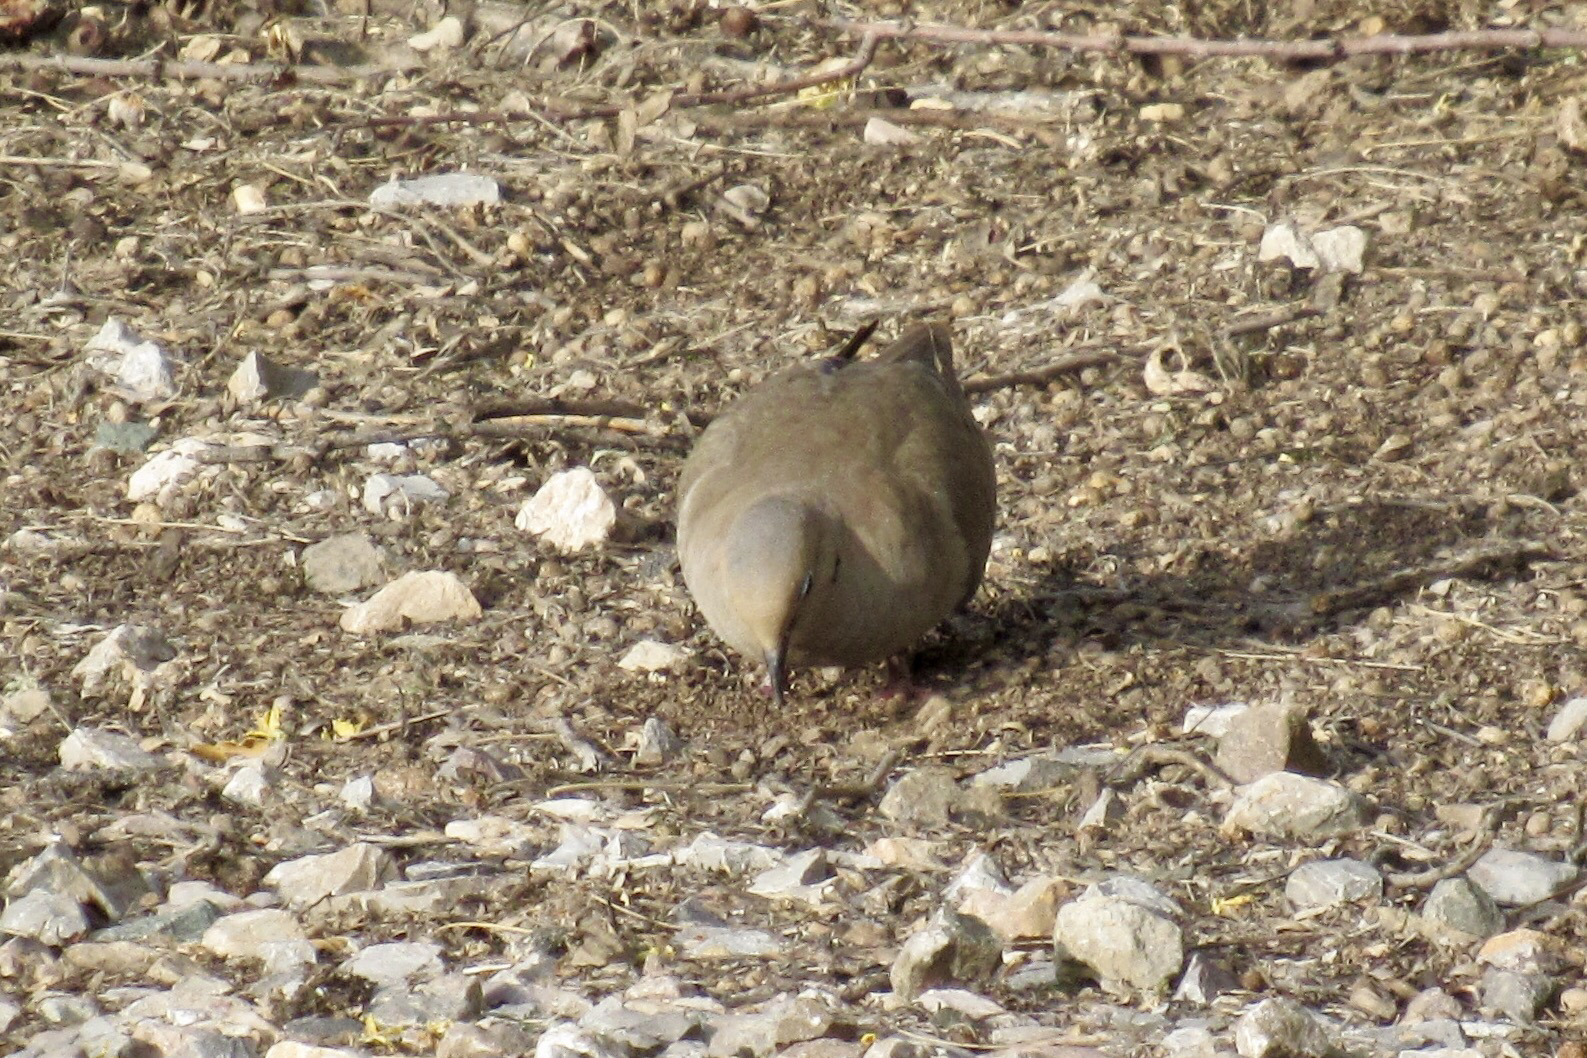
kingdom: Animalia
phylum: Chordata
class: Aves
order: Columbiformes
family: Columbidae
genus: Zenaida
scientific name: Zenaida macroura
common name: Mourning dove
